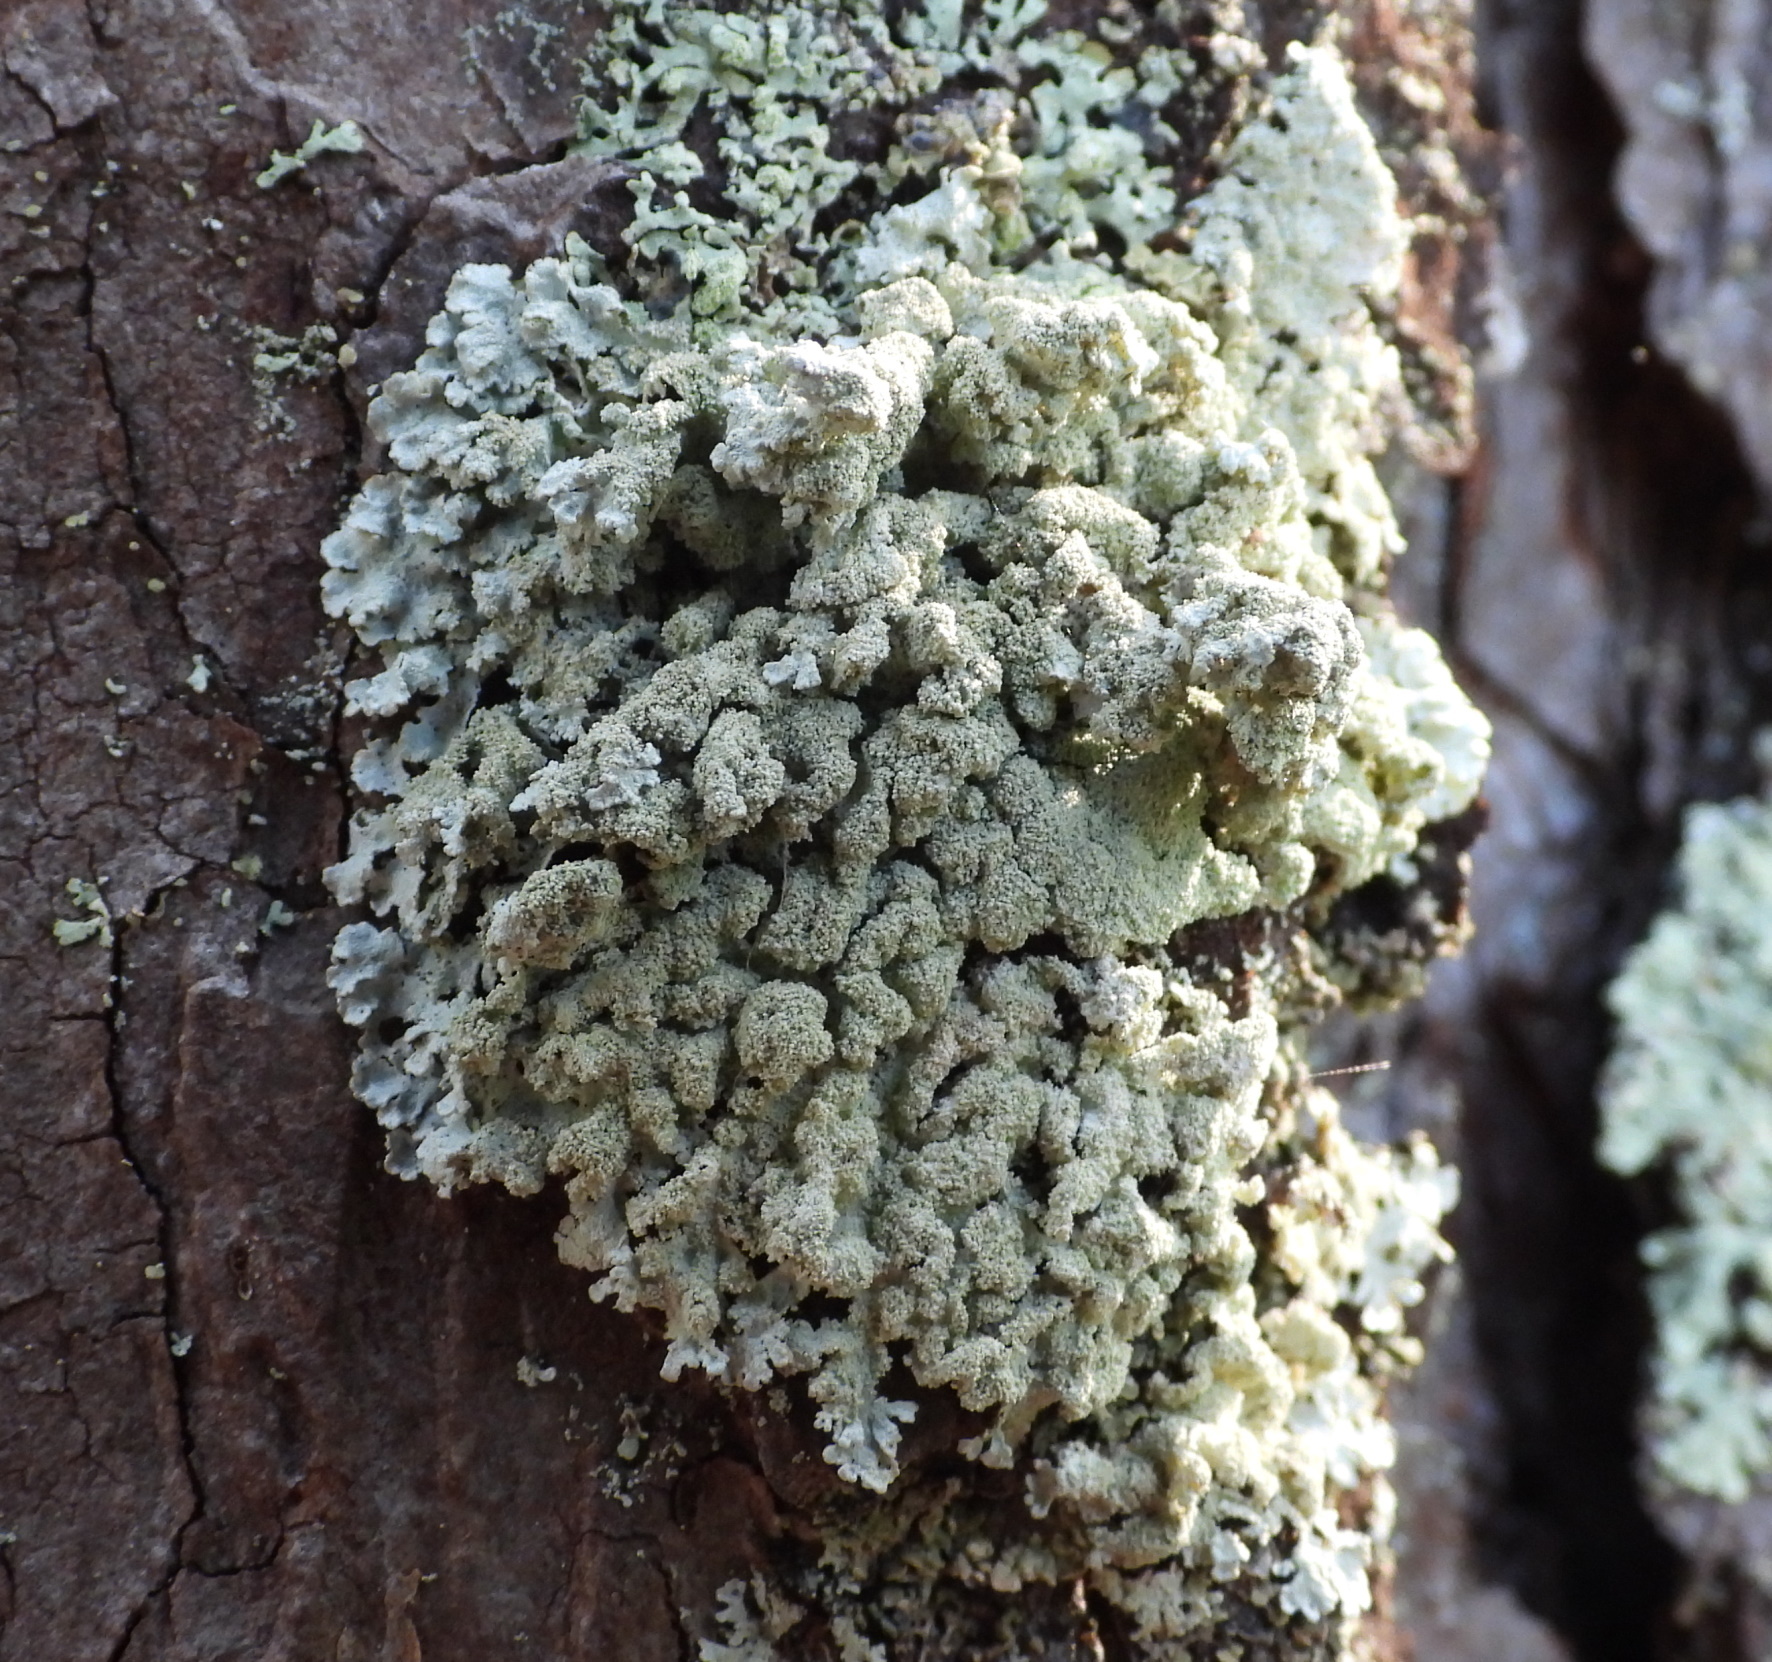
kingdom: Fungi
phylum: Ascomycota
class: Lecanoromycetes
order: Lecanorales
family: Parmeliaceae
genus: Imshaugia
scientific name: Imshaugia aleurites
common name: Salted starburst lichen
